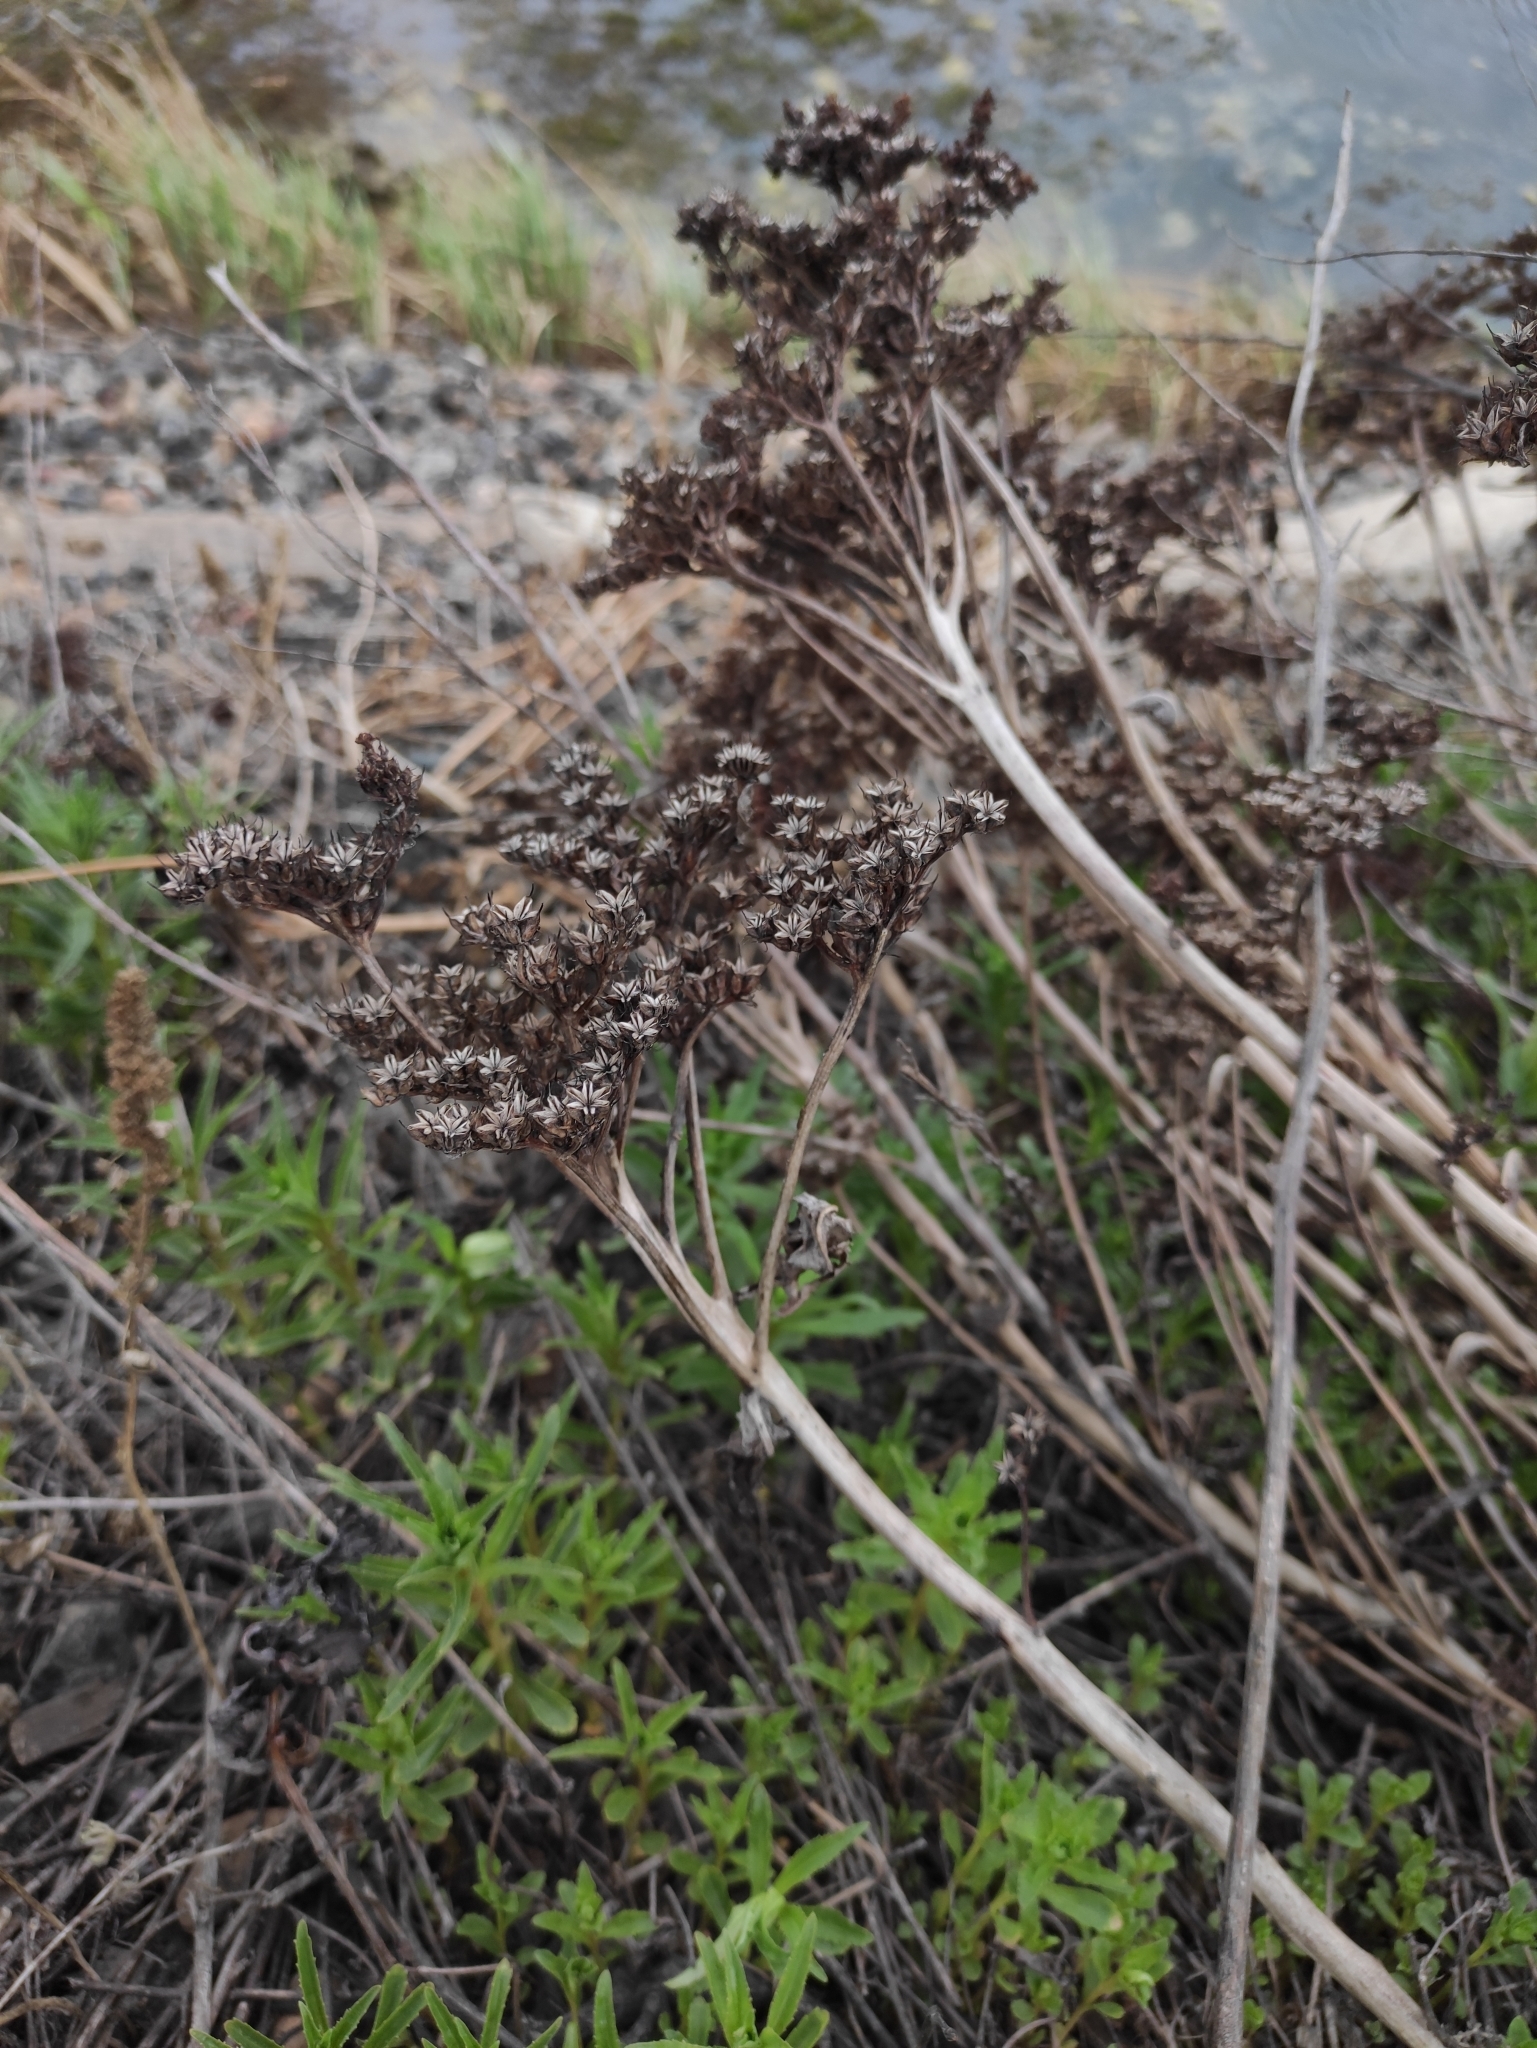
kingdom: Plantae
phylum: Tracheophyta
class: Magnoliopsida
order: Saxifragales
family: Crassulaceae
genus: Phedimus
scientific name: Phedimus aizoon
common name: Orpin aizoon
